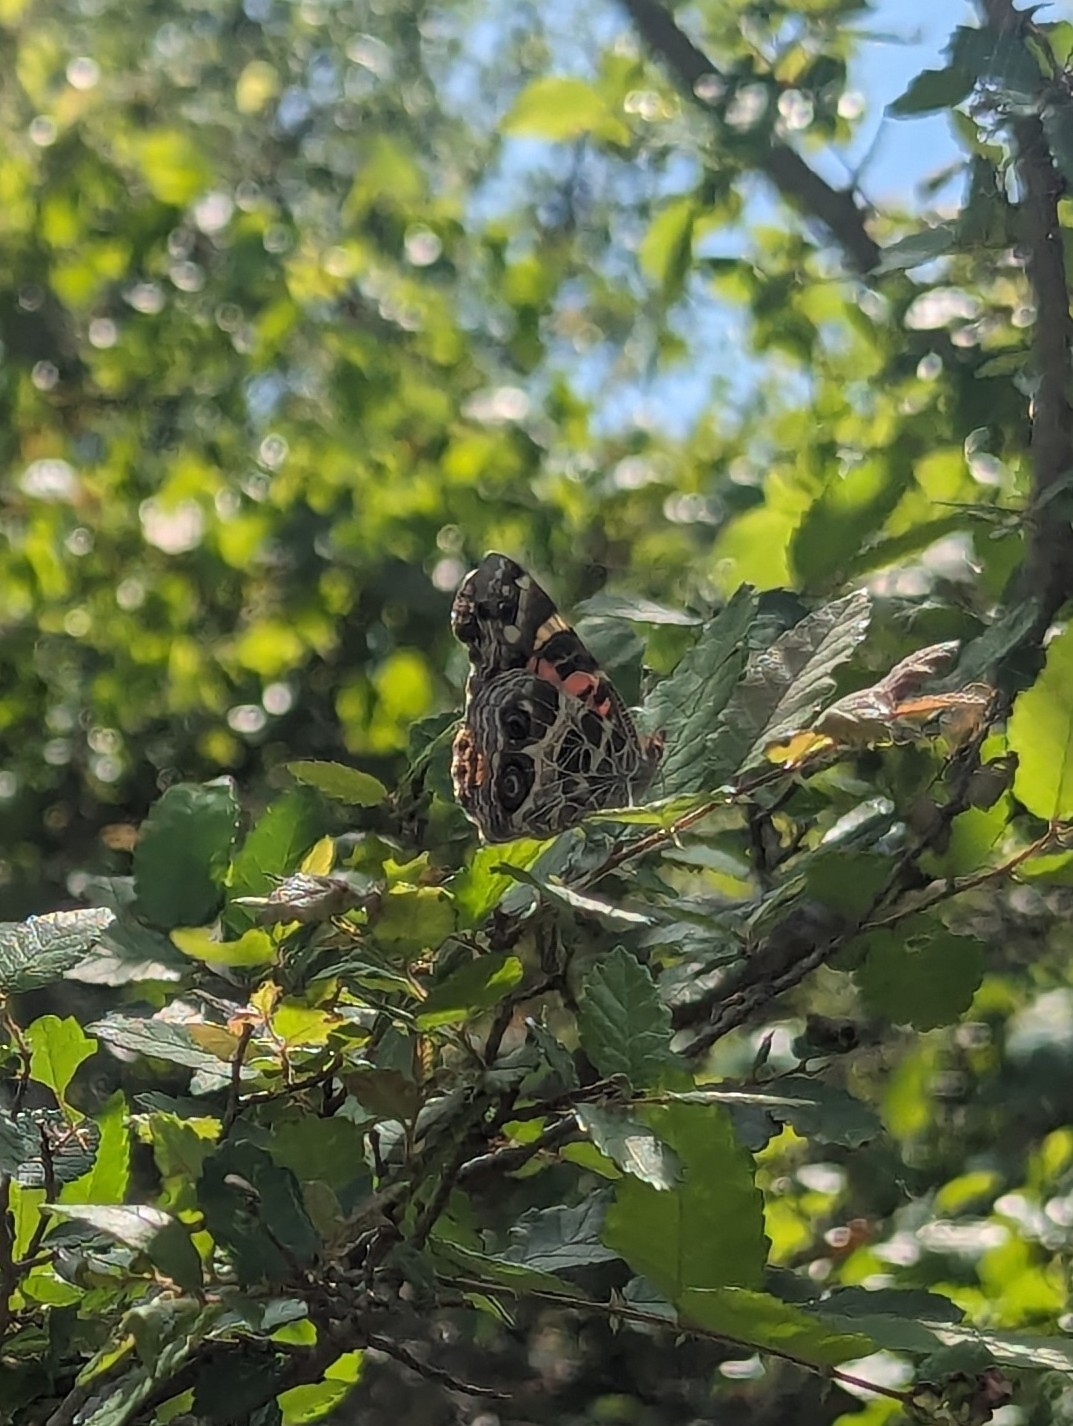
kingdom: Animalia
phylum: Arthropoda
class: Insecta
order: Lepidoptera
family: Nymphalidae
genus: Vanessa
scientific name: Vanessa virginiensis
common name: American lady
